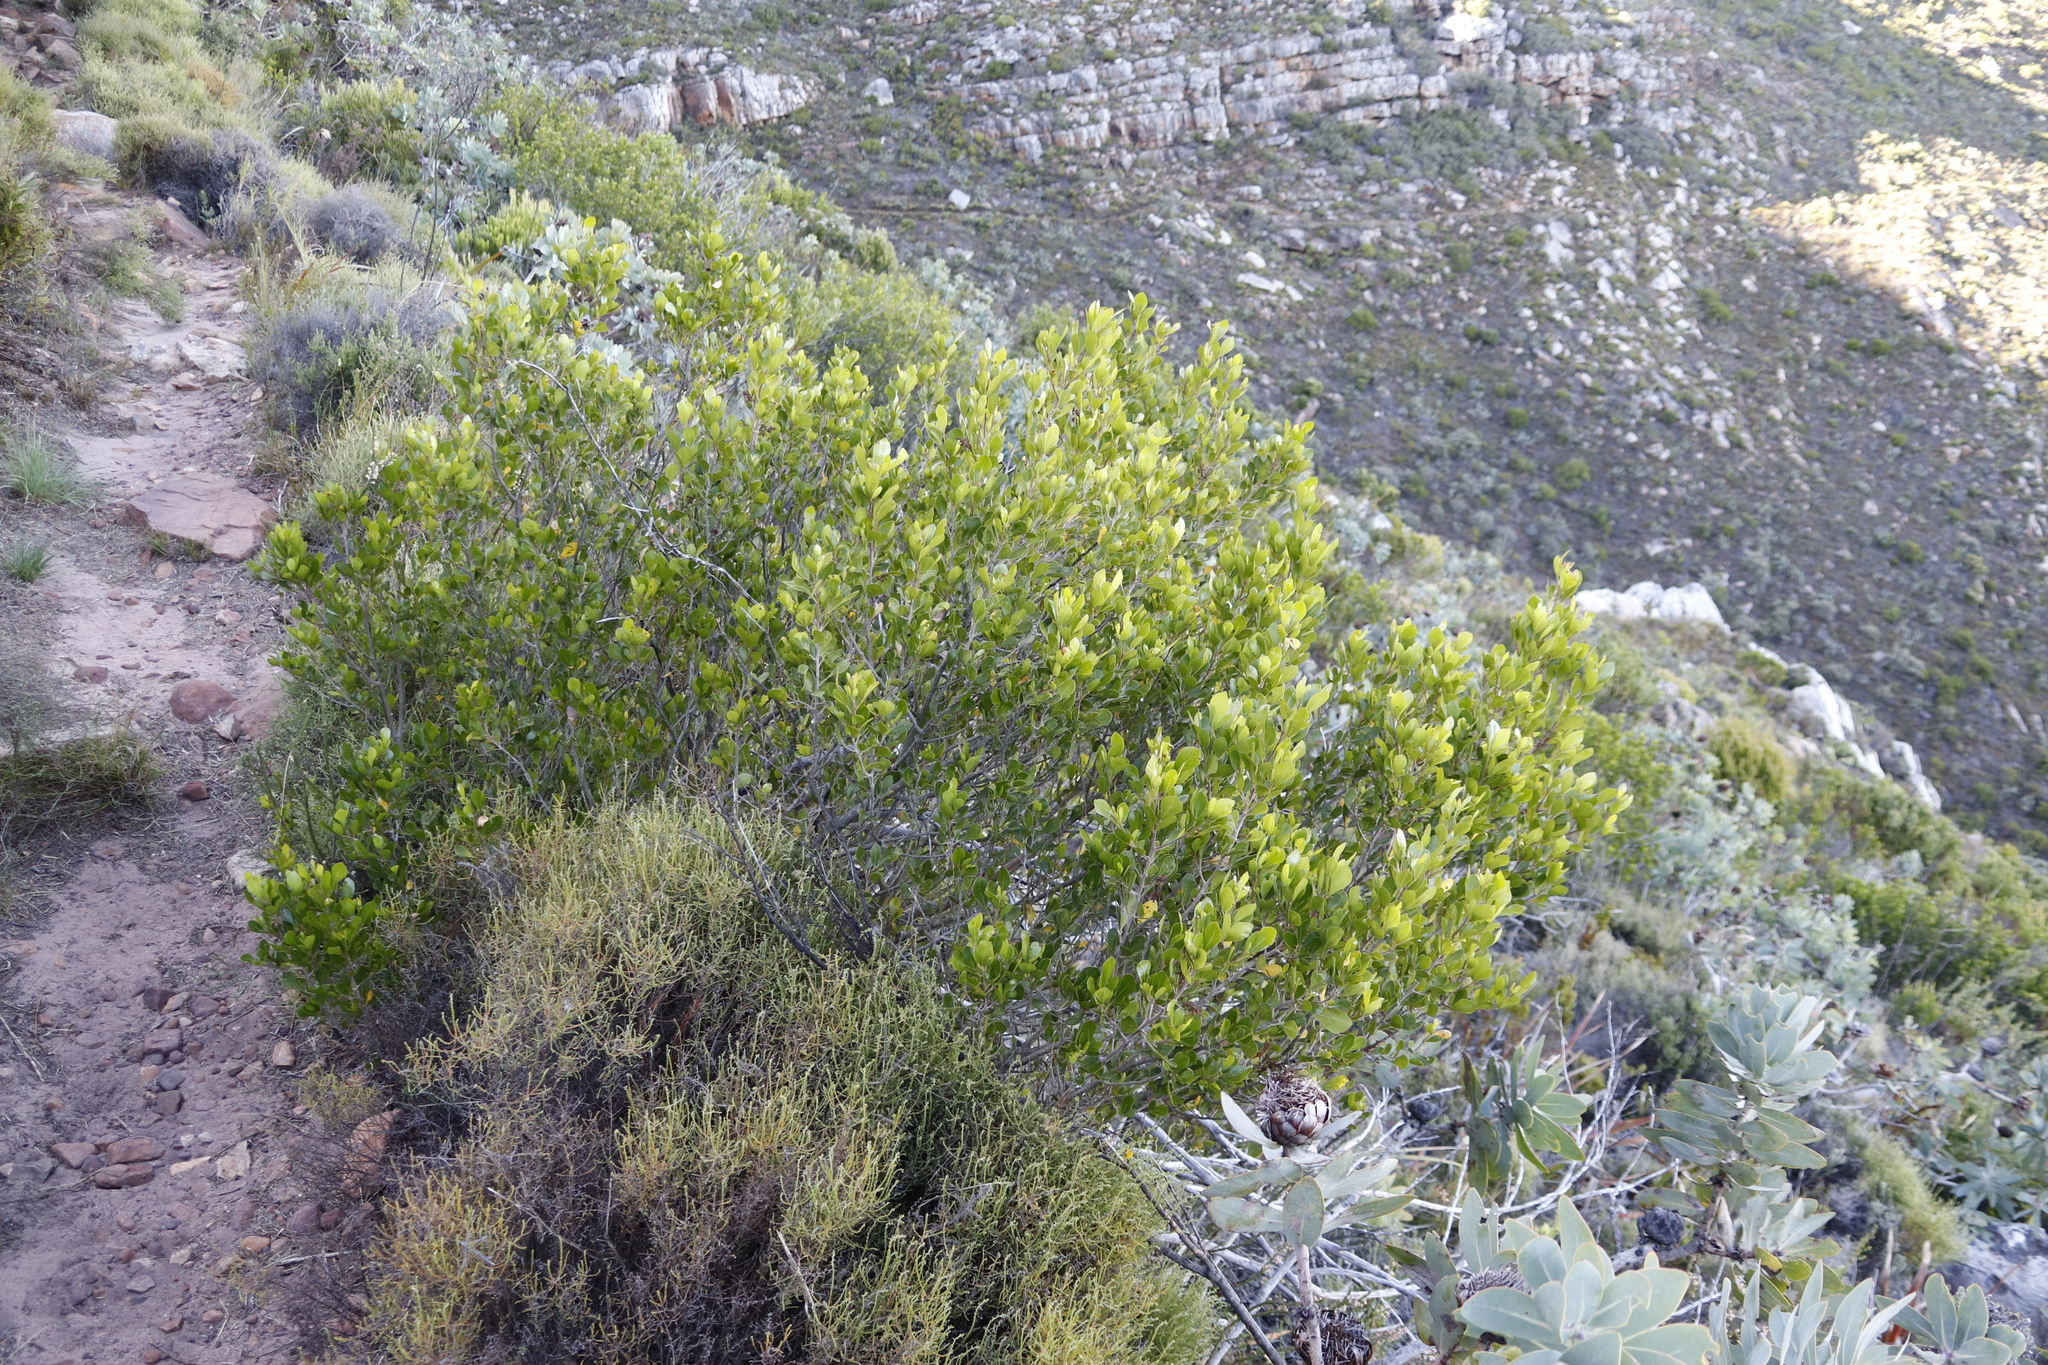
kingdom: Plantae
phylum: Tracheophyta
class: Magnoliopsida
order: Sapindales
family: Anacardiaceae
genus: Searsia
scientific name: Searsia lucida
